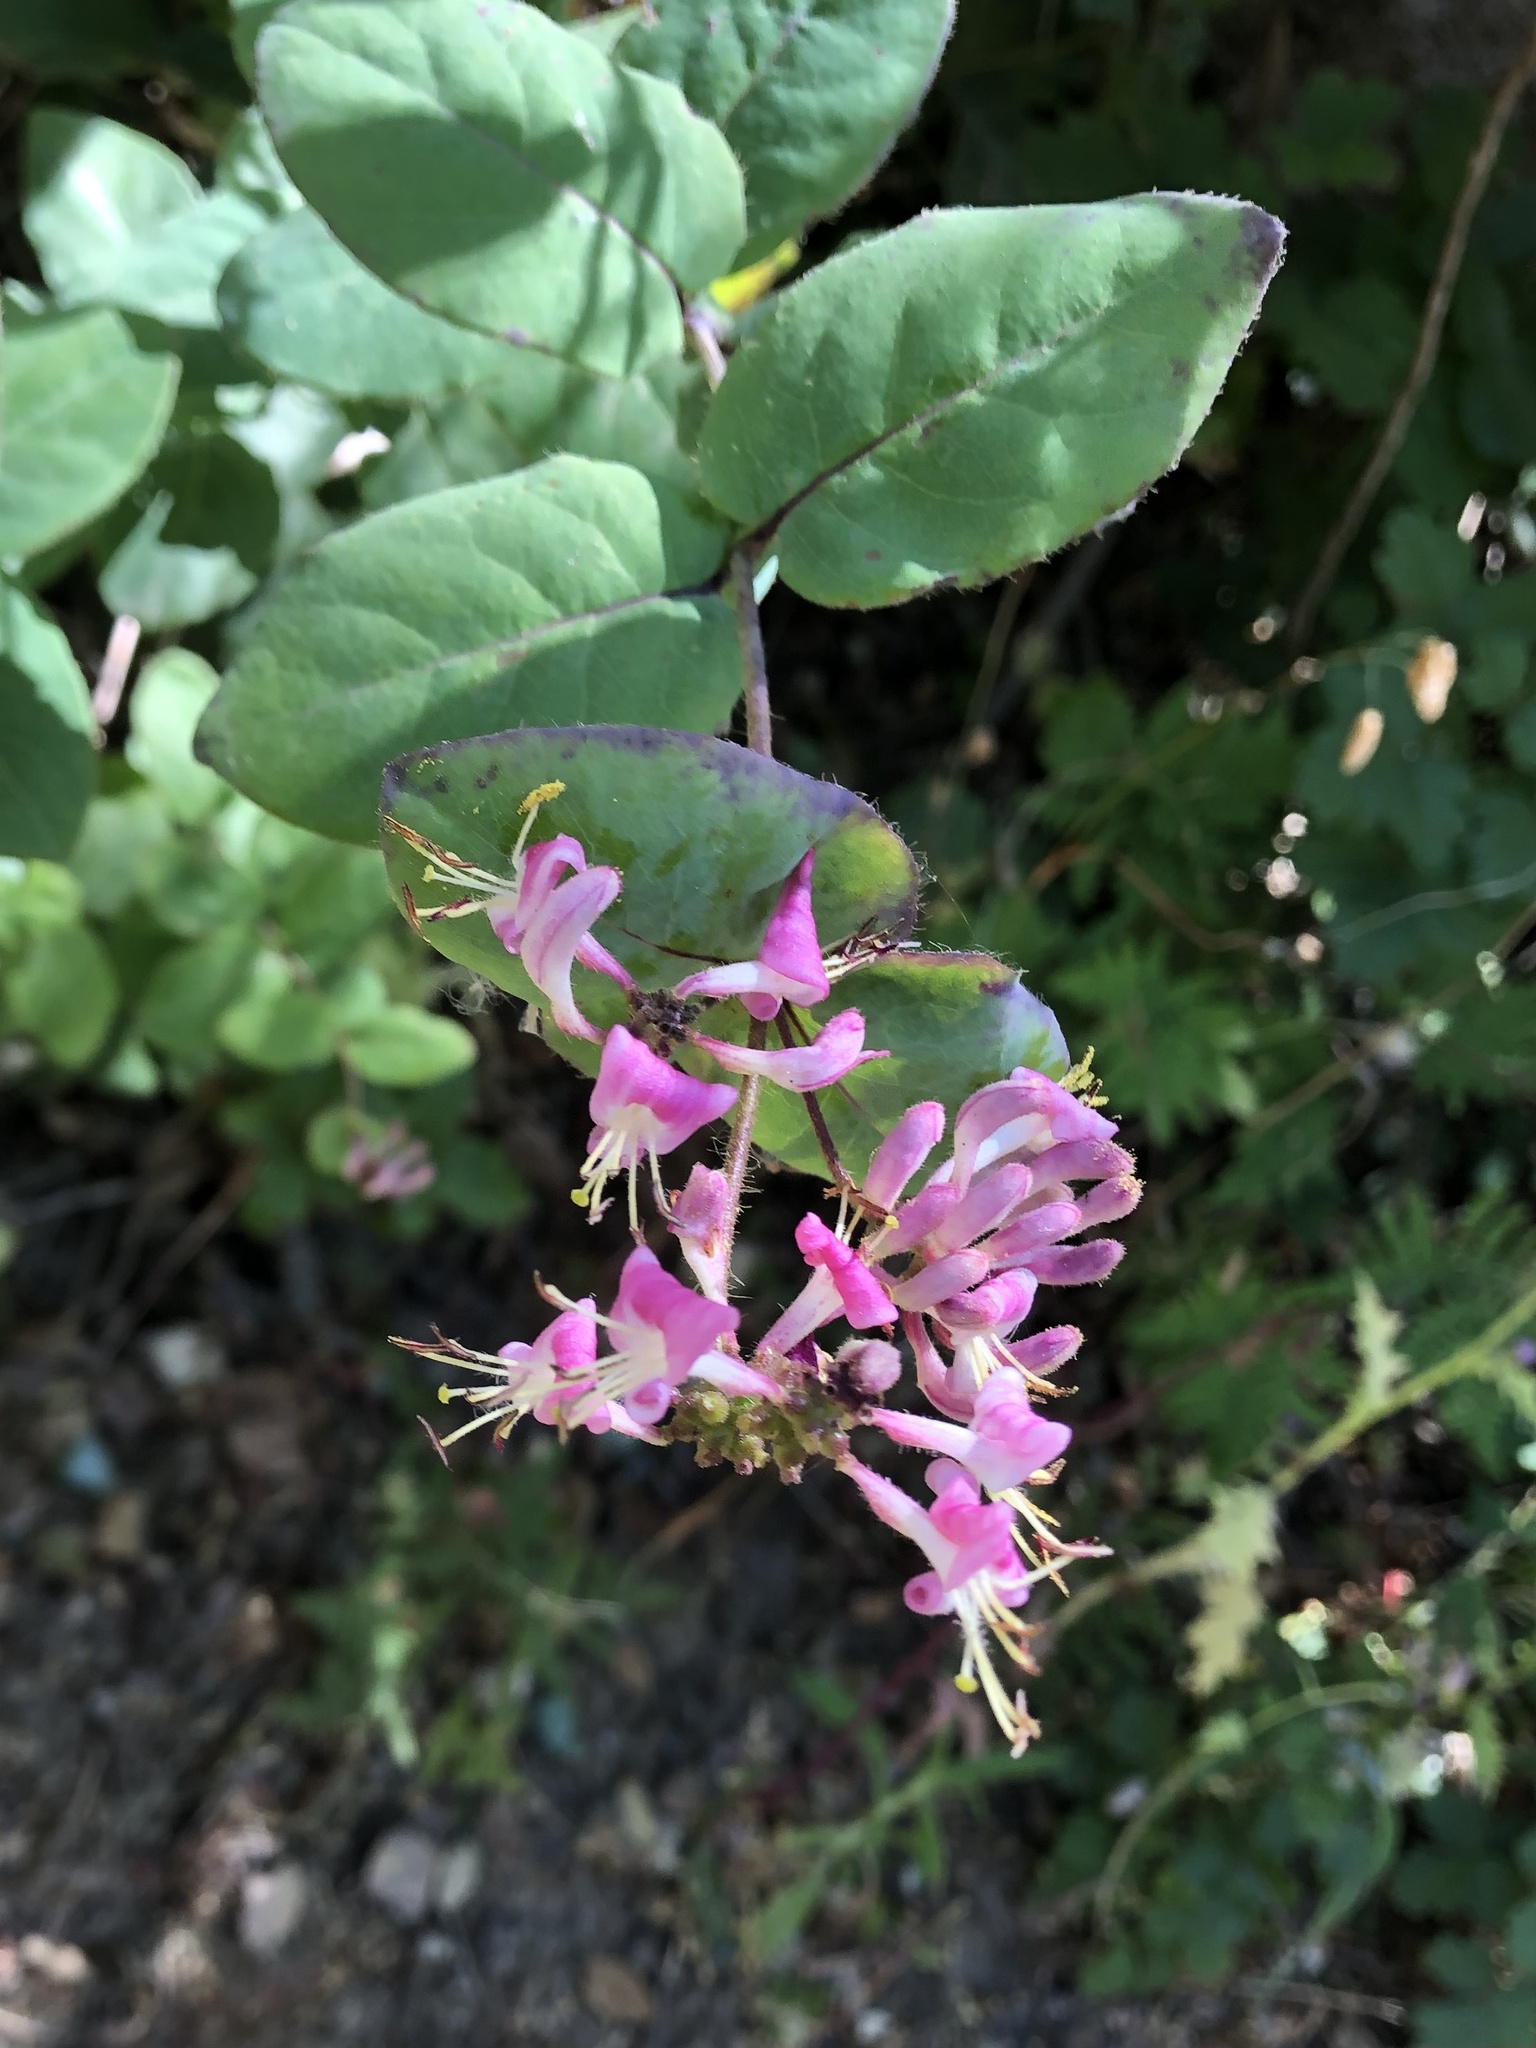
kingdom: Plantae
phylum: Tracheophyta
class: Magnoliopsida
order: Dipsacales
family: Caprifoliaceae
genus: Lonicera
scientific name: Lonicera hispidula
